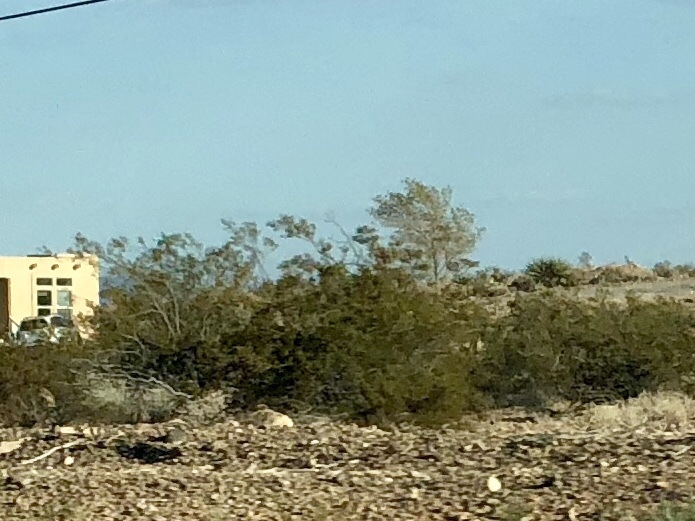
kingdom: Plantae
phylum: Tracheophyta
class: Magnoliopsida
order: Zygophyllales
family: Zygophyllaceae
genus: Larrea
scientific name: Larrea tridentata
